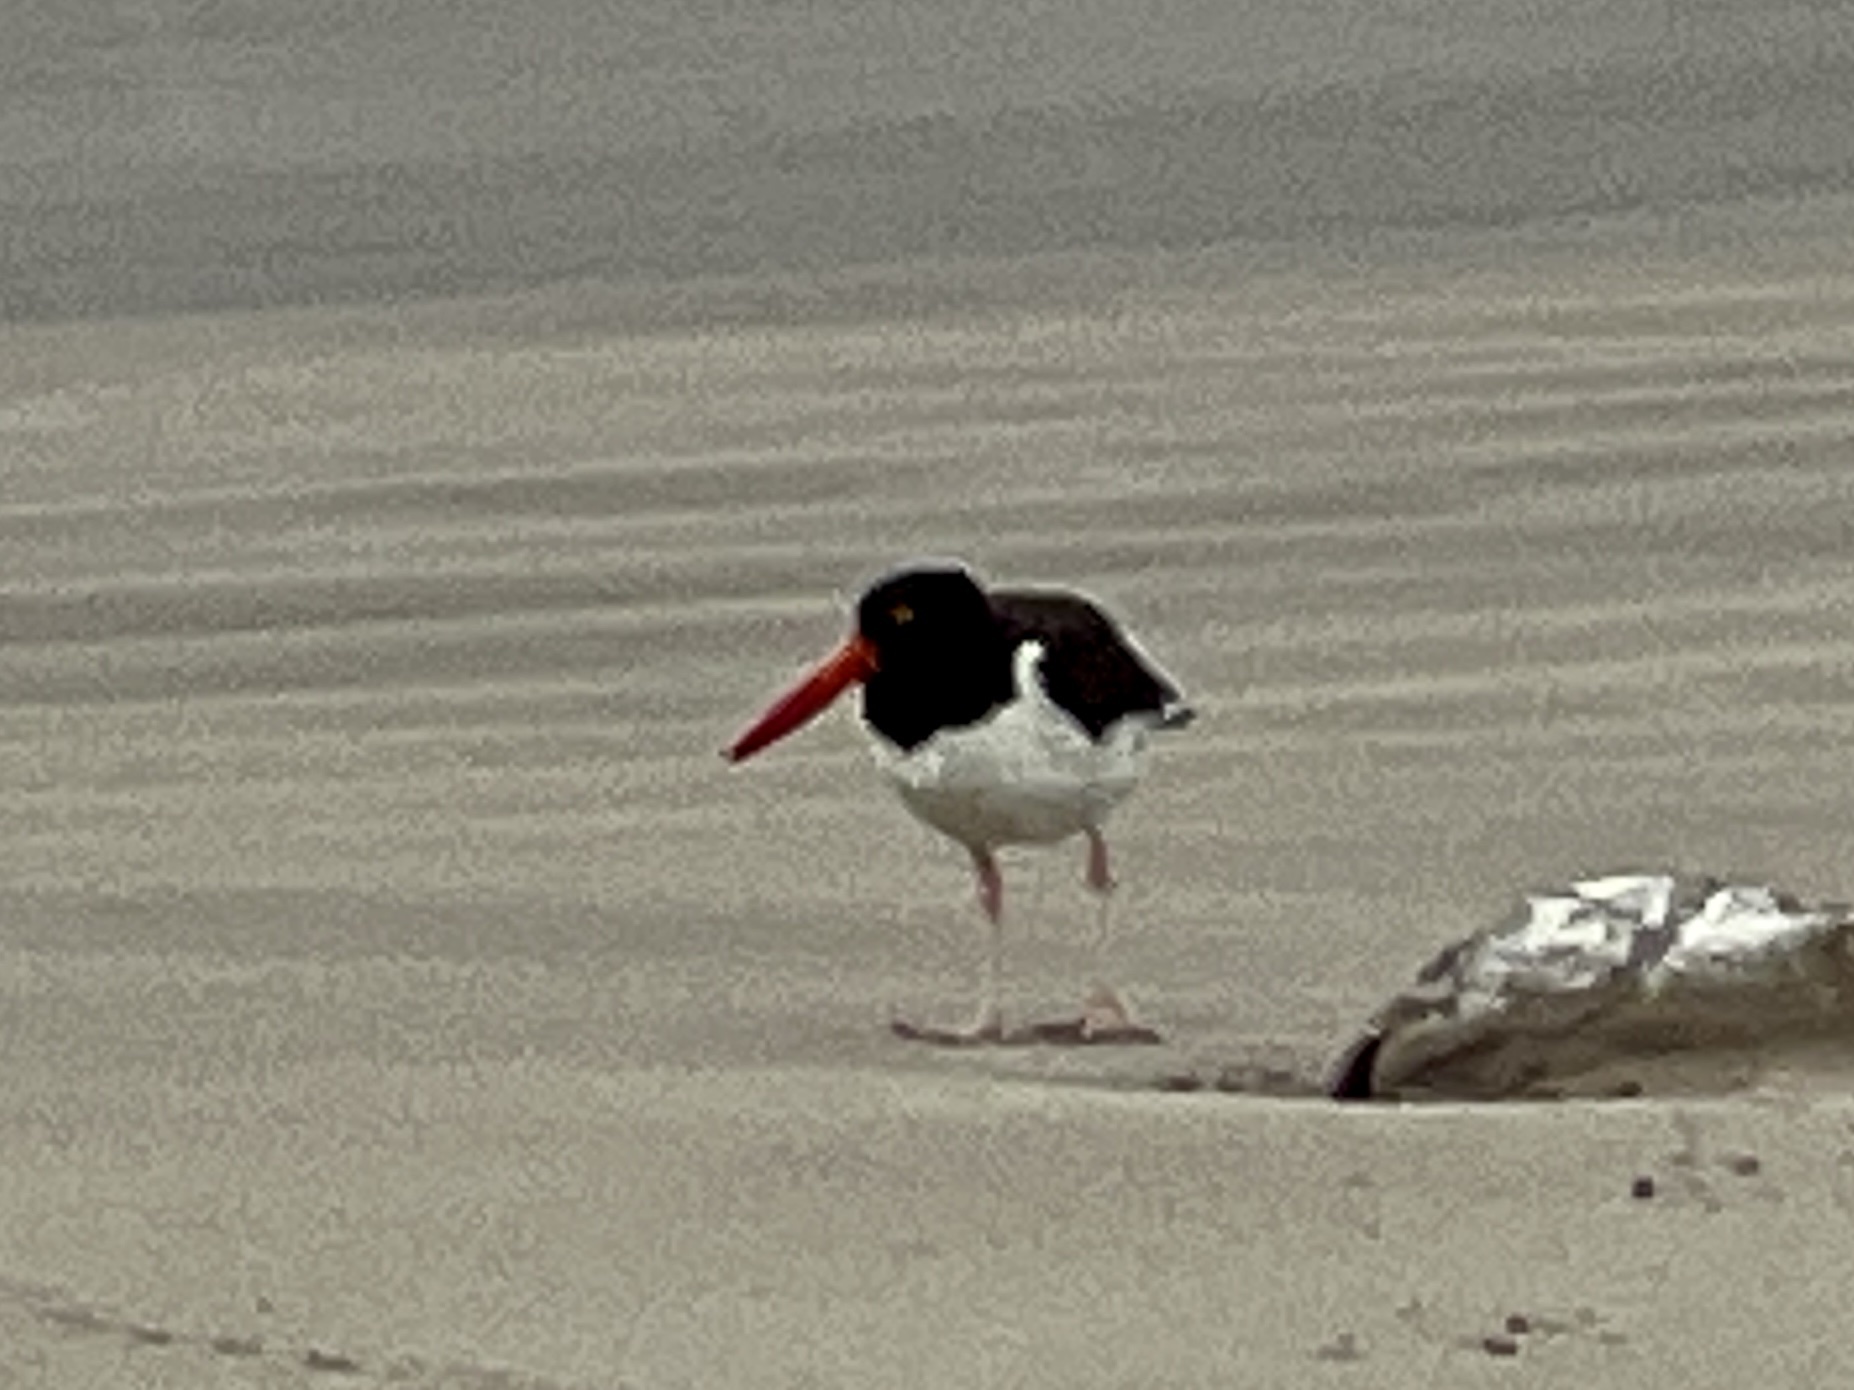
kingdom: Animalia
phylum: Chordata
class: Aves
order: Charadriiformes
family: Haematopodidae
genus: Haematopus
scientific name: Haematopus palliatus
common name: American oystercatcher
